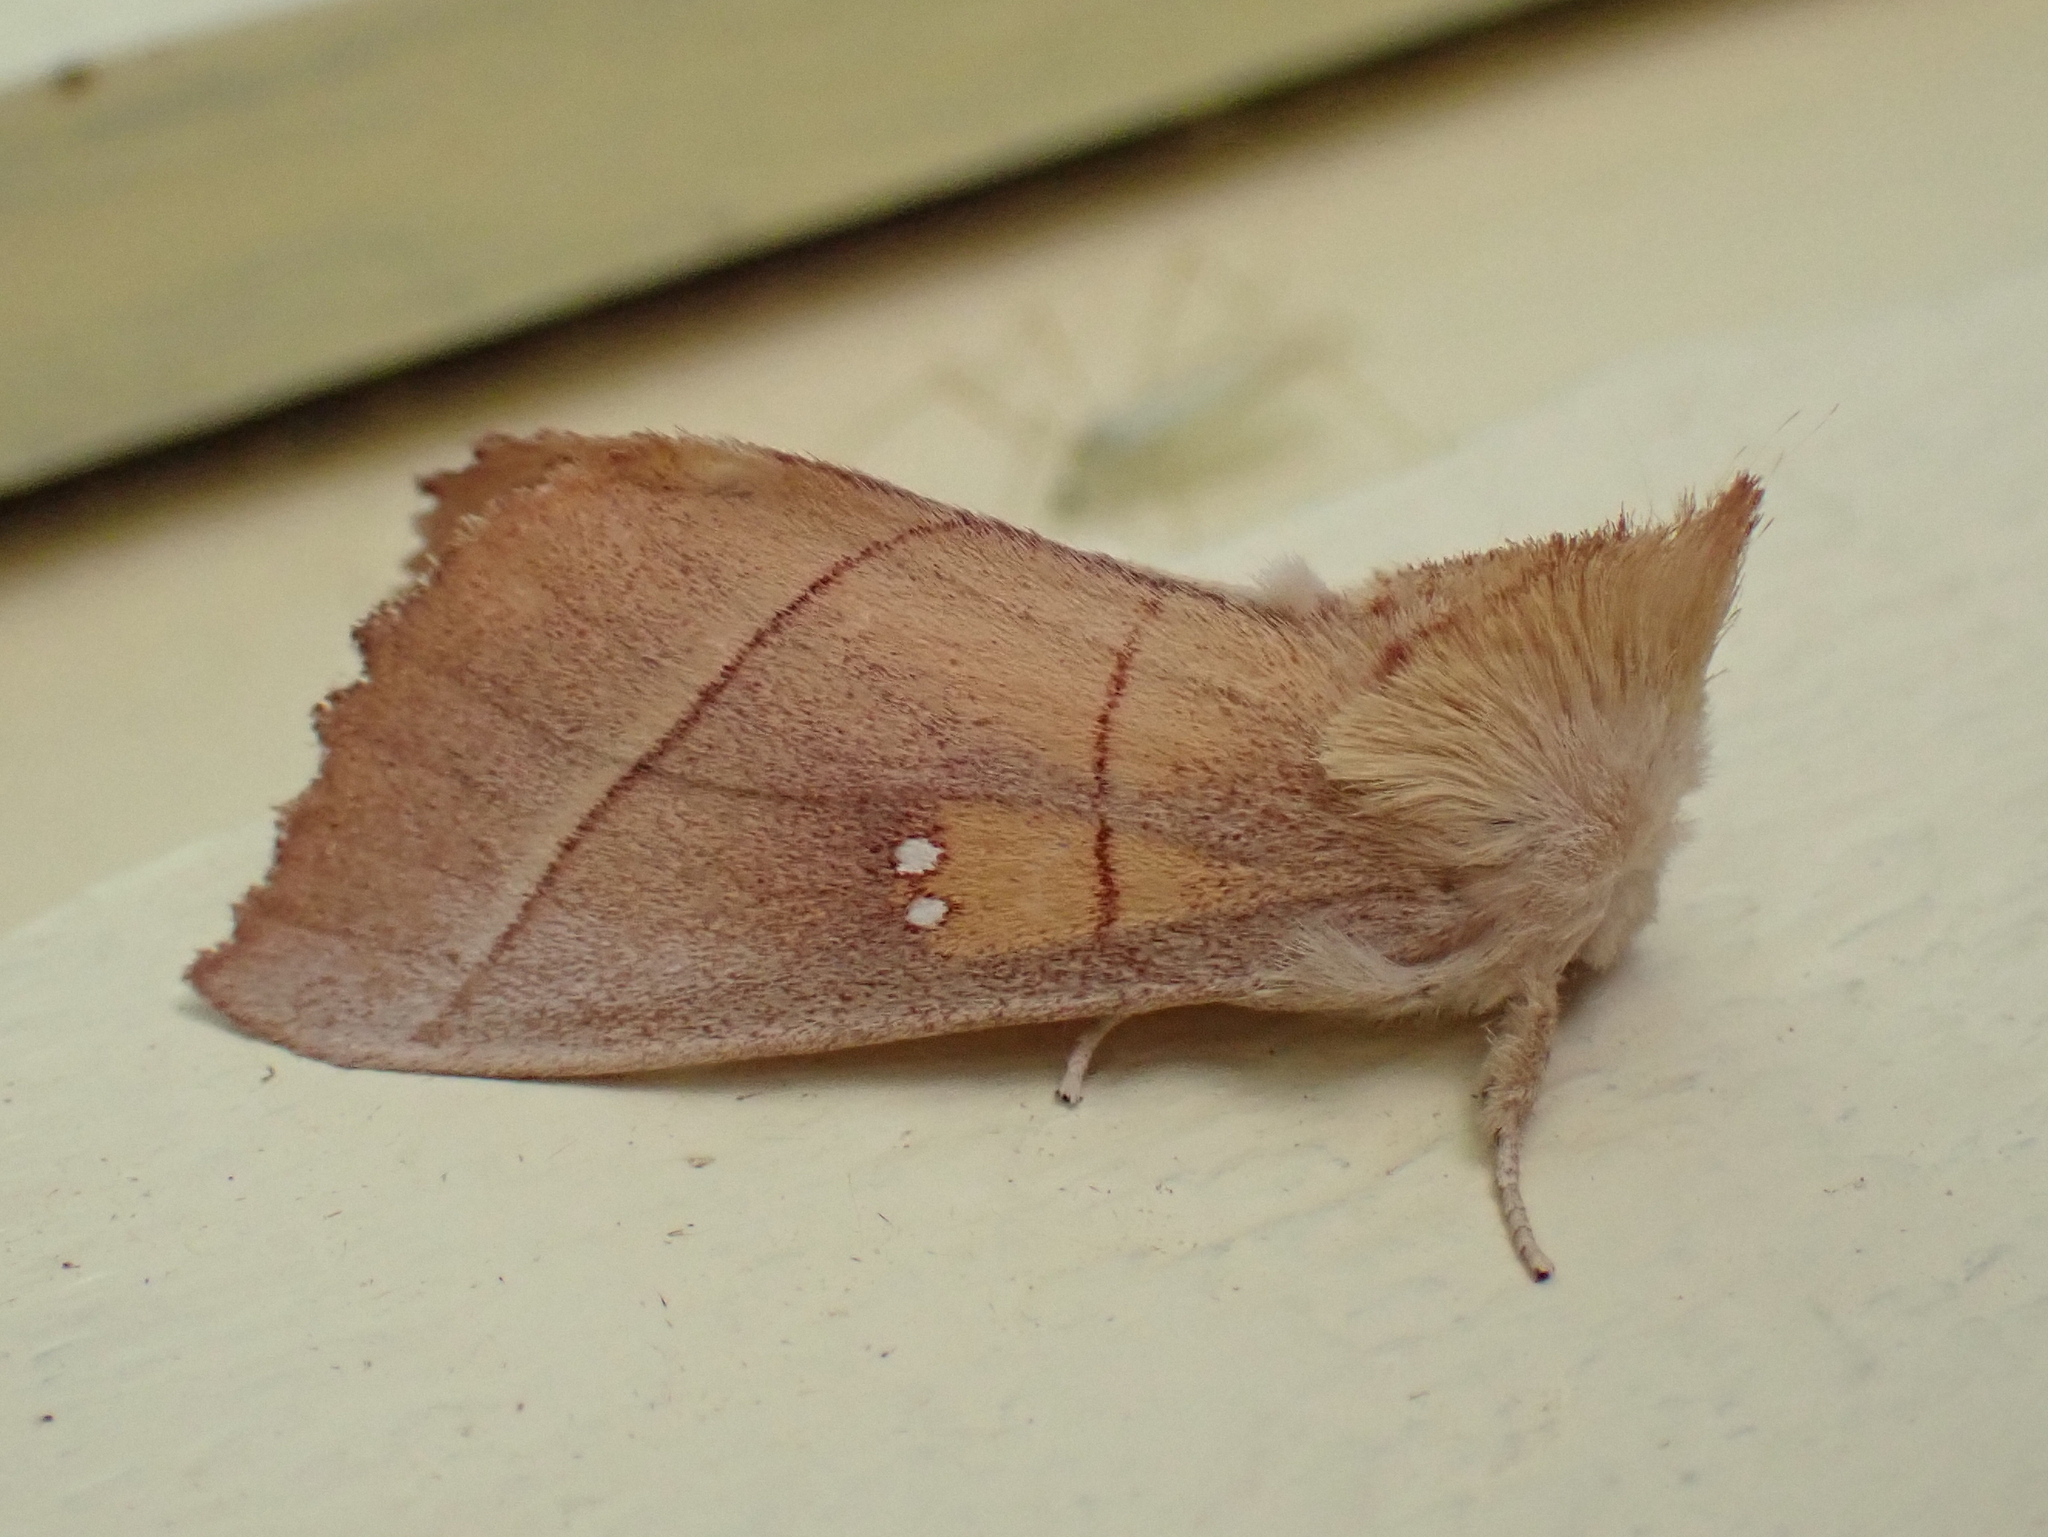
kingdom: Animalia
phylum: Arthropoda
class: Insecta
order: Lepidoptera
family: Notodontidae
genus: Nadata
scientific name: Nadata gibbosa
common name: White-dotted prominent
